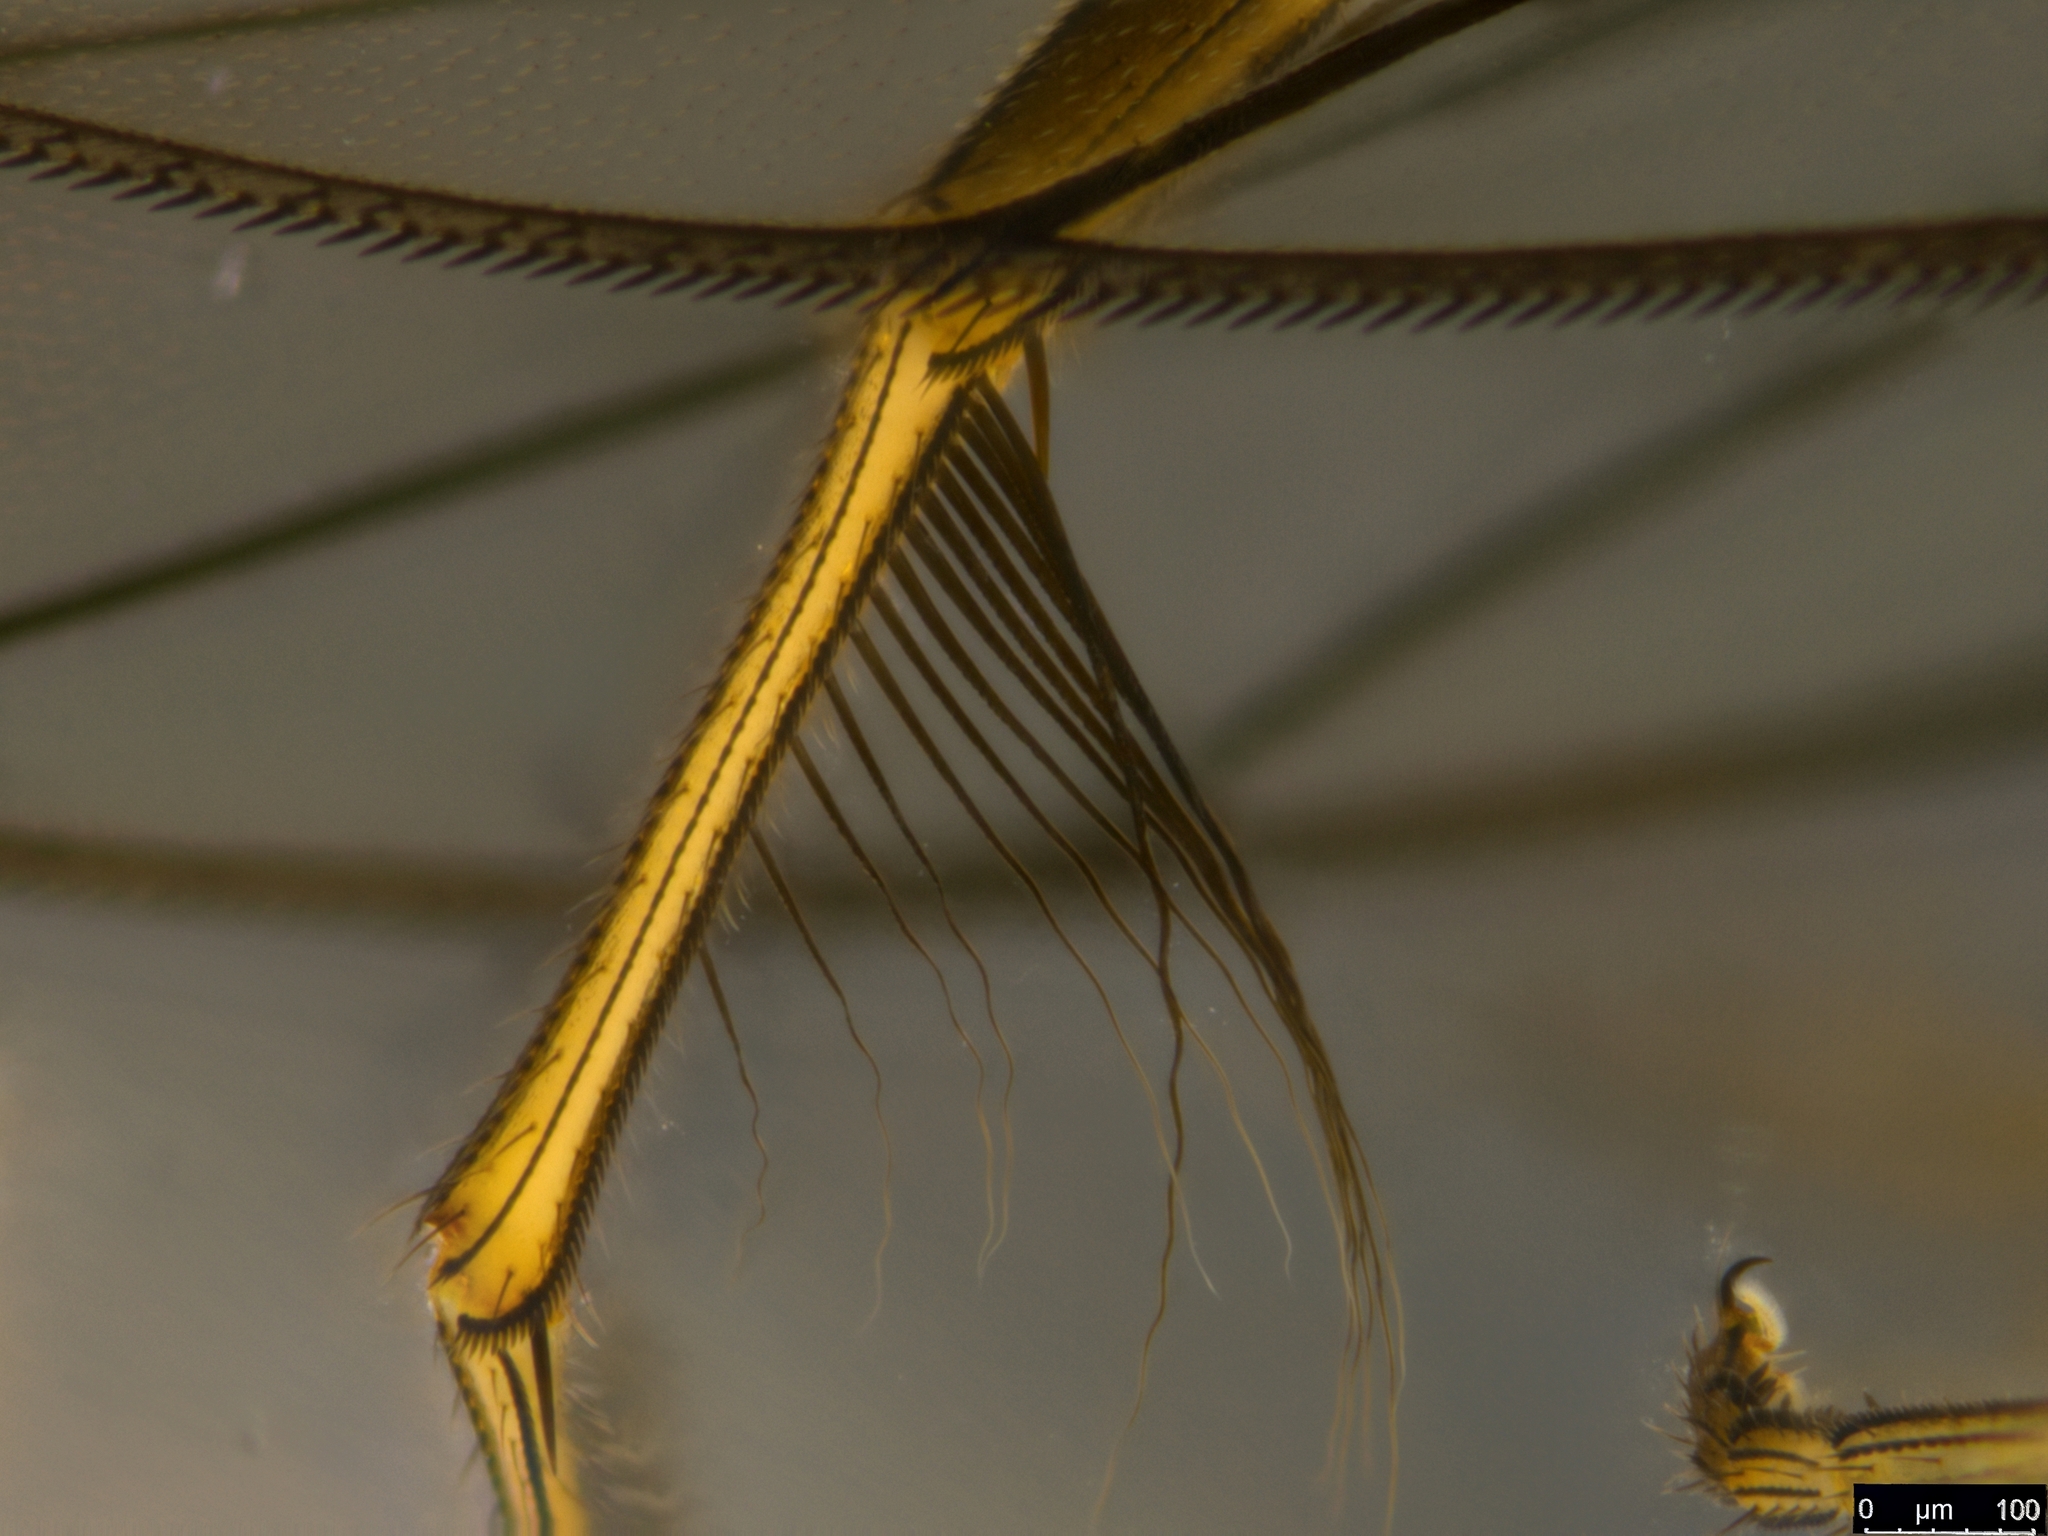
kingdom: Animalia
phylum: Arthropoda
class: Insecta
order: Diptera
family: Phoridae
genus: Sciadocera
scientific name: Sciadocera rufomaculata
